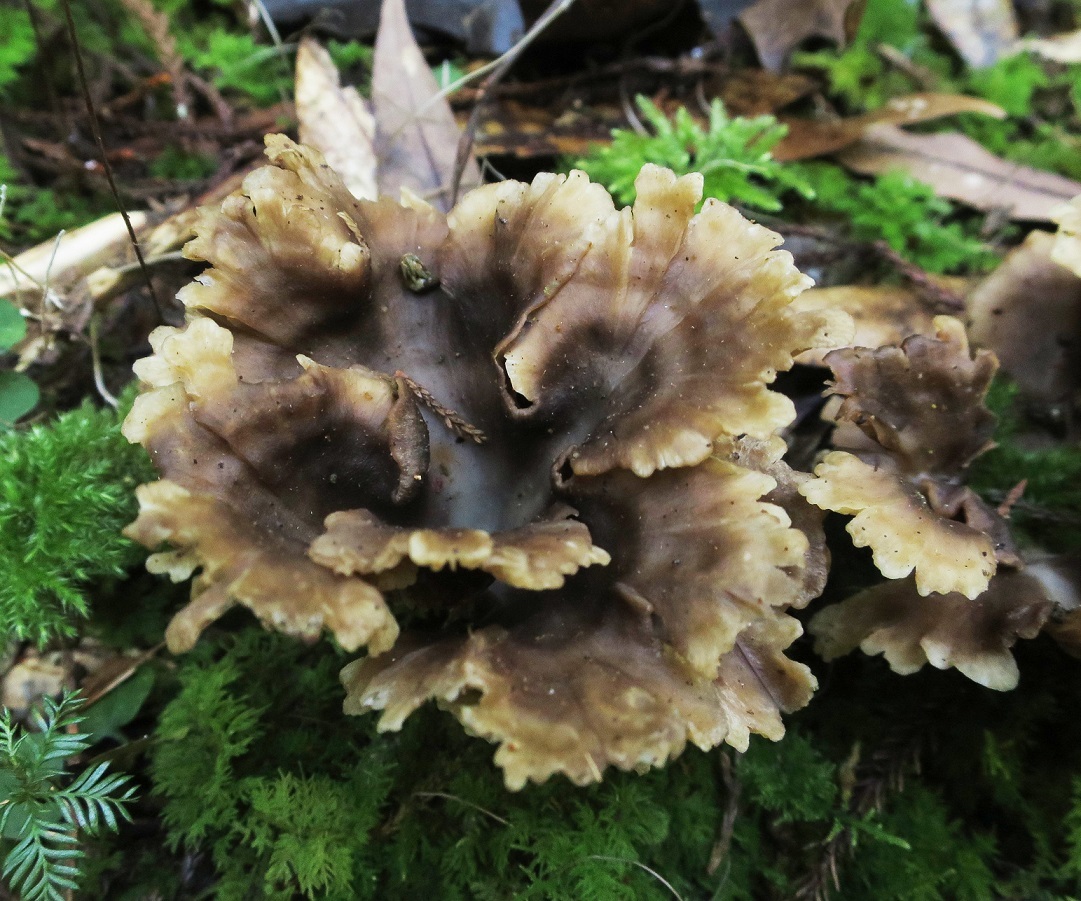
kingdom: Fungi
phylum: Basidiomycota
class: Agaricomycetes
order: Agaricales
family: Tricholomataceae
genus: Rhizocybe
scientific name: Rhizocybe
